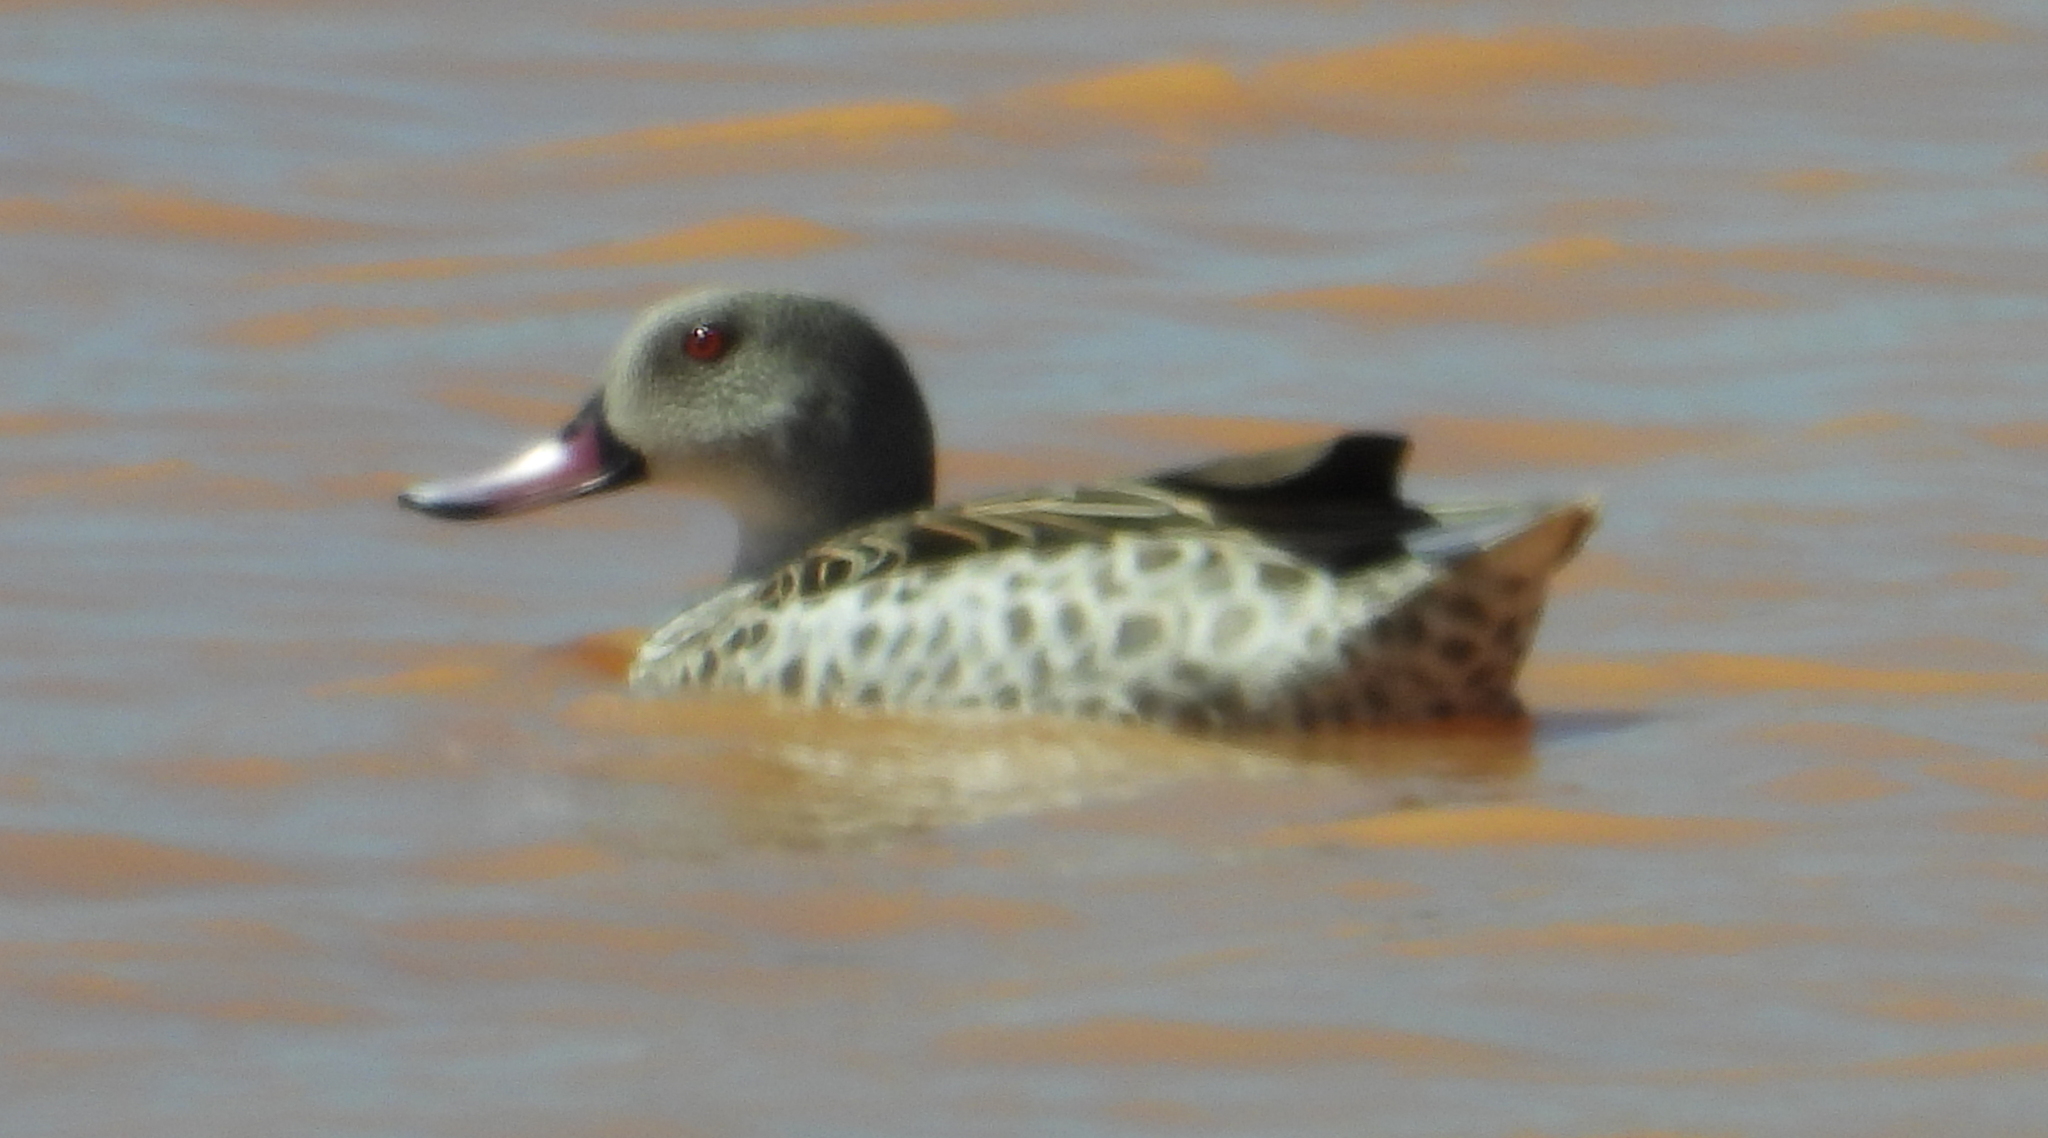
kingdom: Animalia
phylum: Chordata
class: Aves
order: Anseriformes
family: Anatidae
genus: Anas
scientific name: Anas capensis
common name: Cape teal
